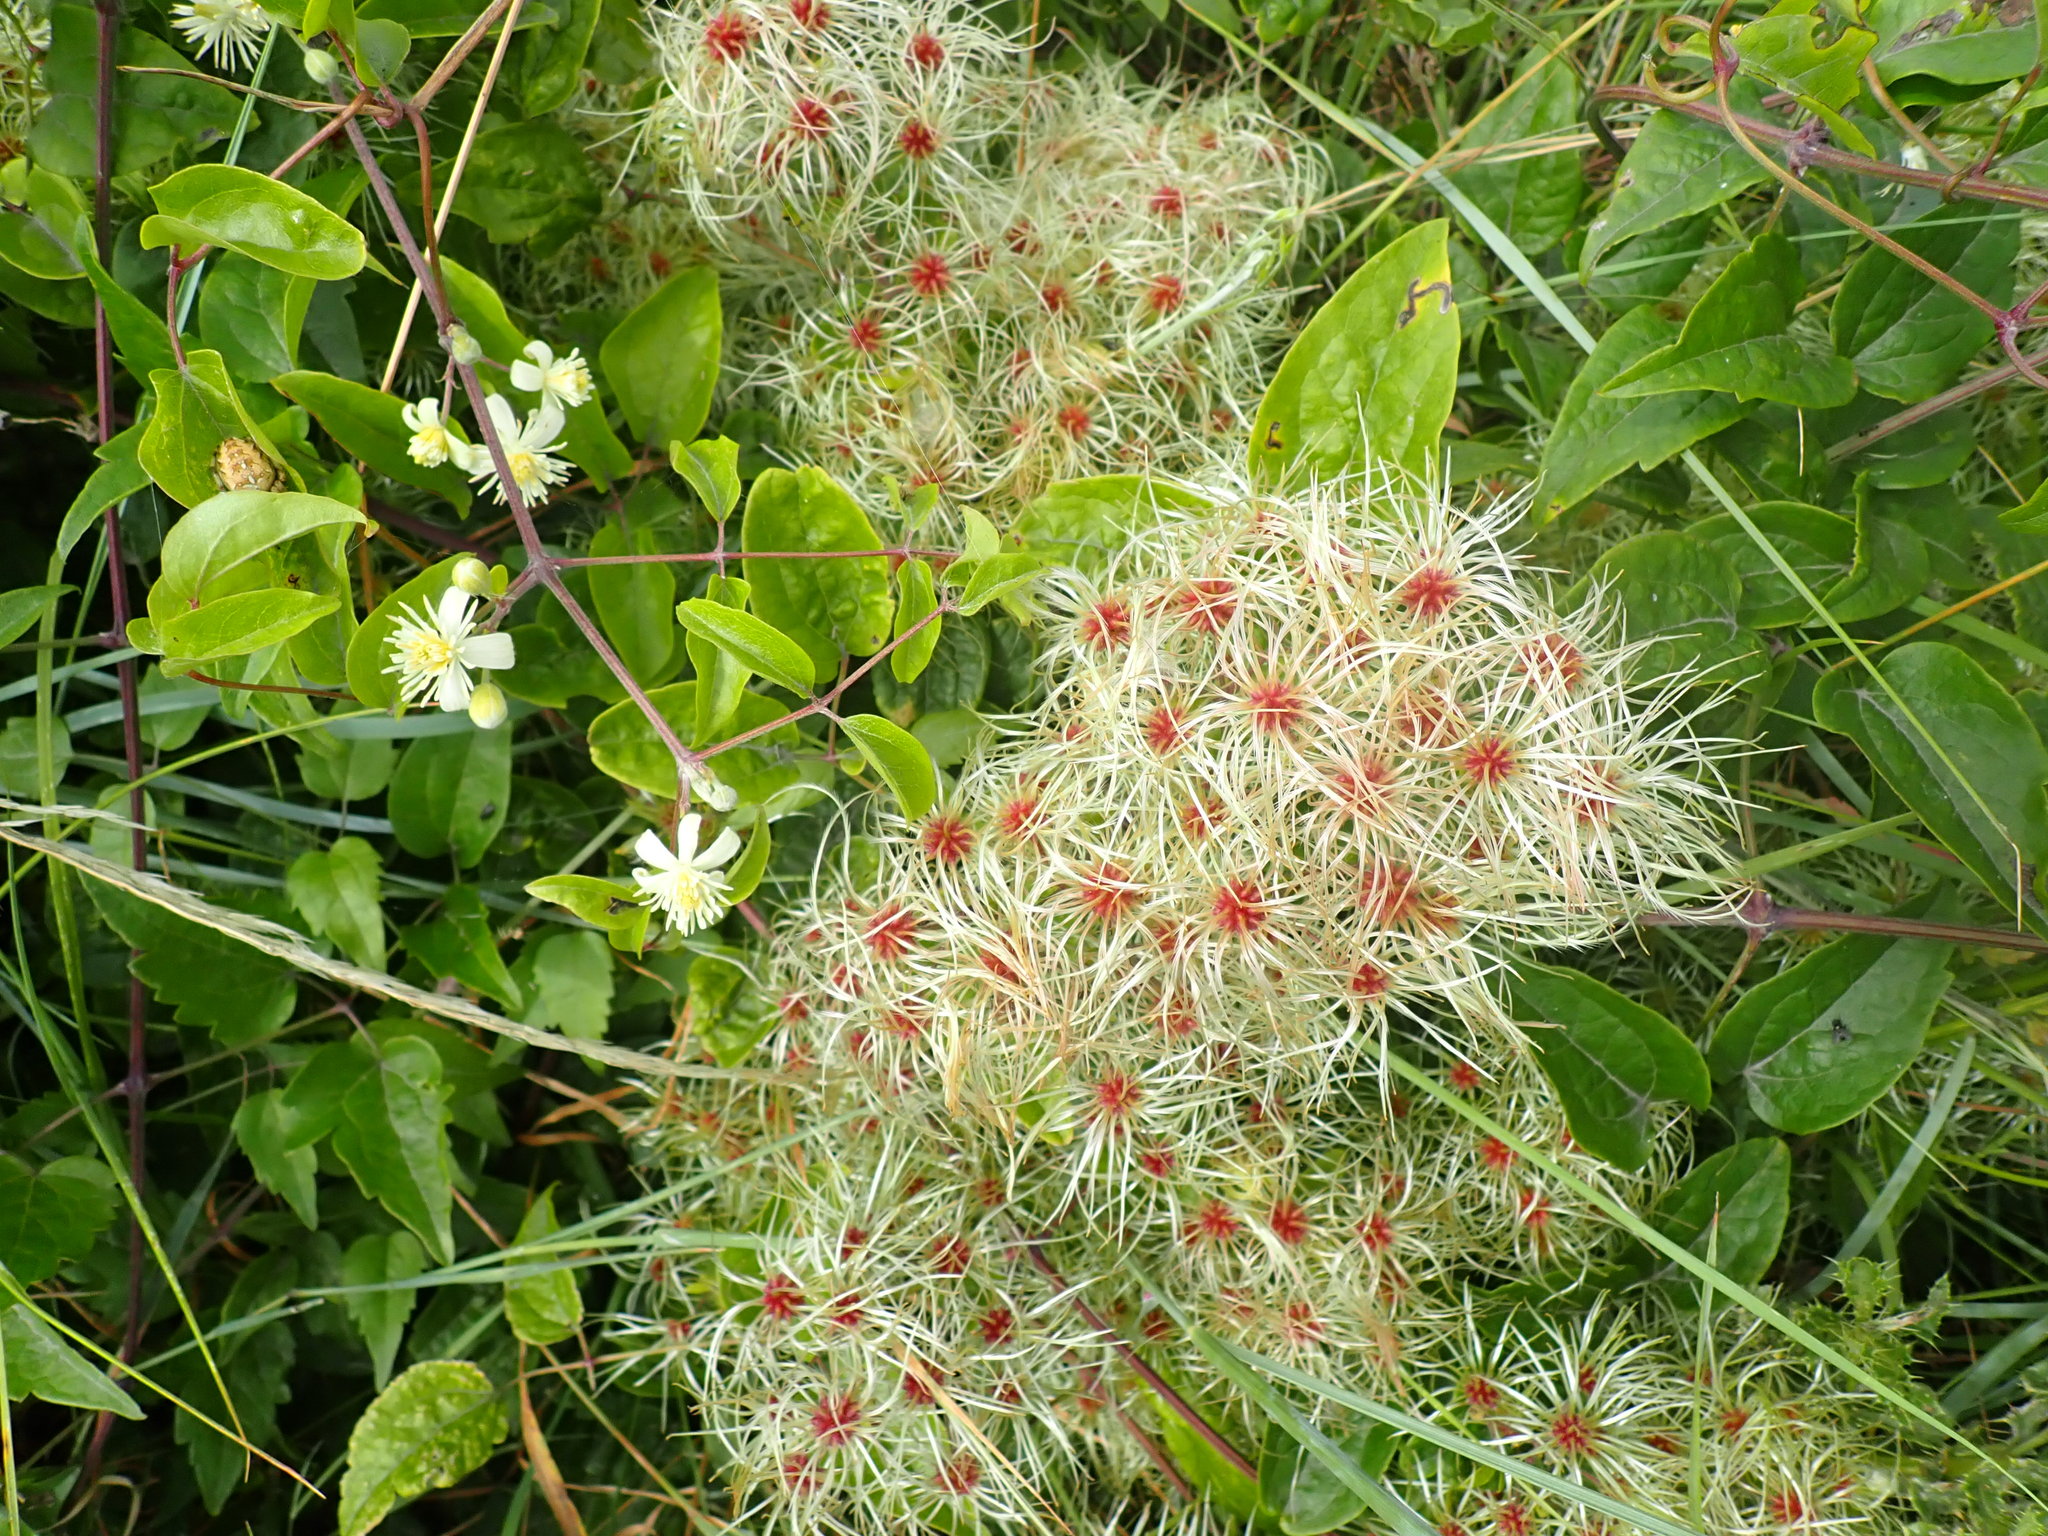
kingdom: Plantae
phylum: Tracheophyta
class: Magnoliopsida
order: Ranunculales
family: Ranunculaceae
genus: Clematis
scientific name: Clematis vitalba
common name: Evergreen clematis
